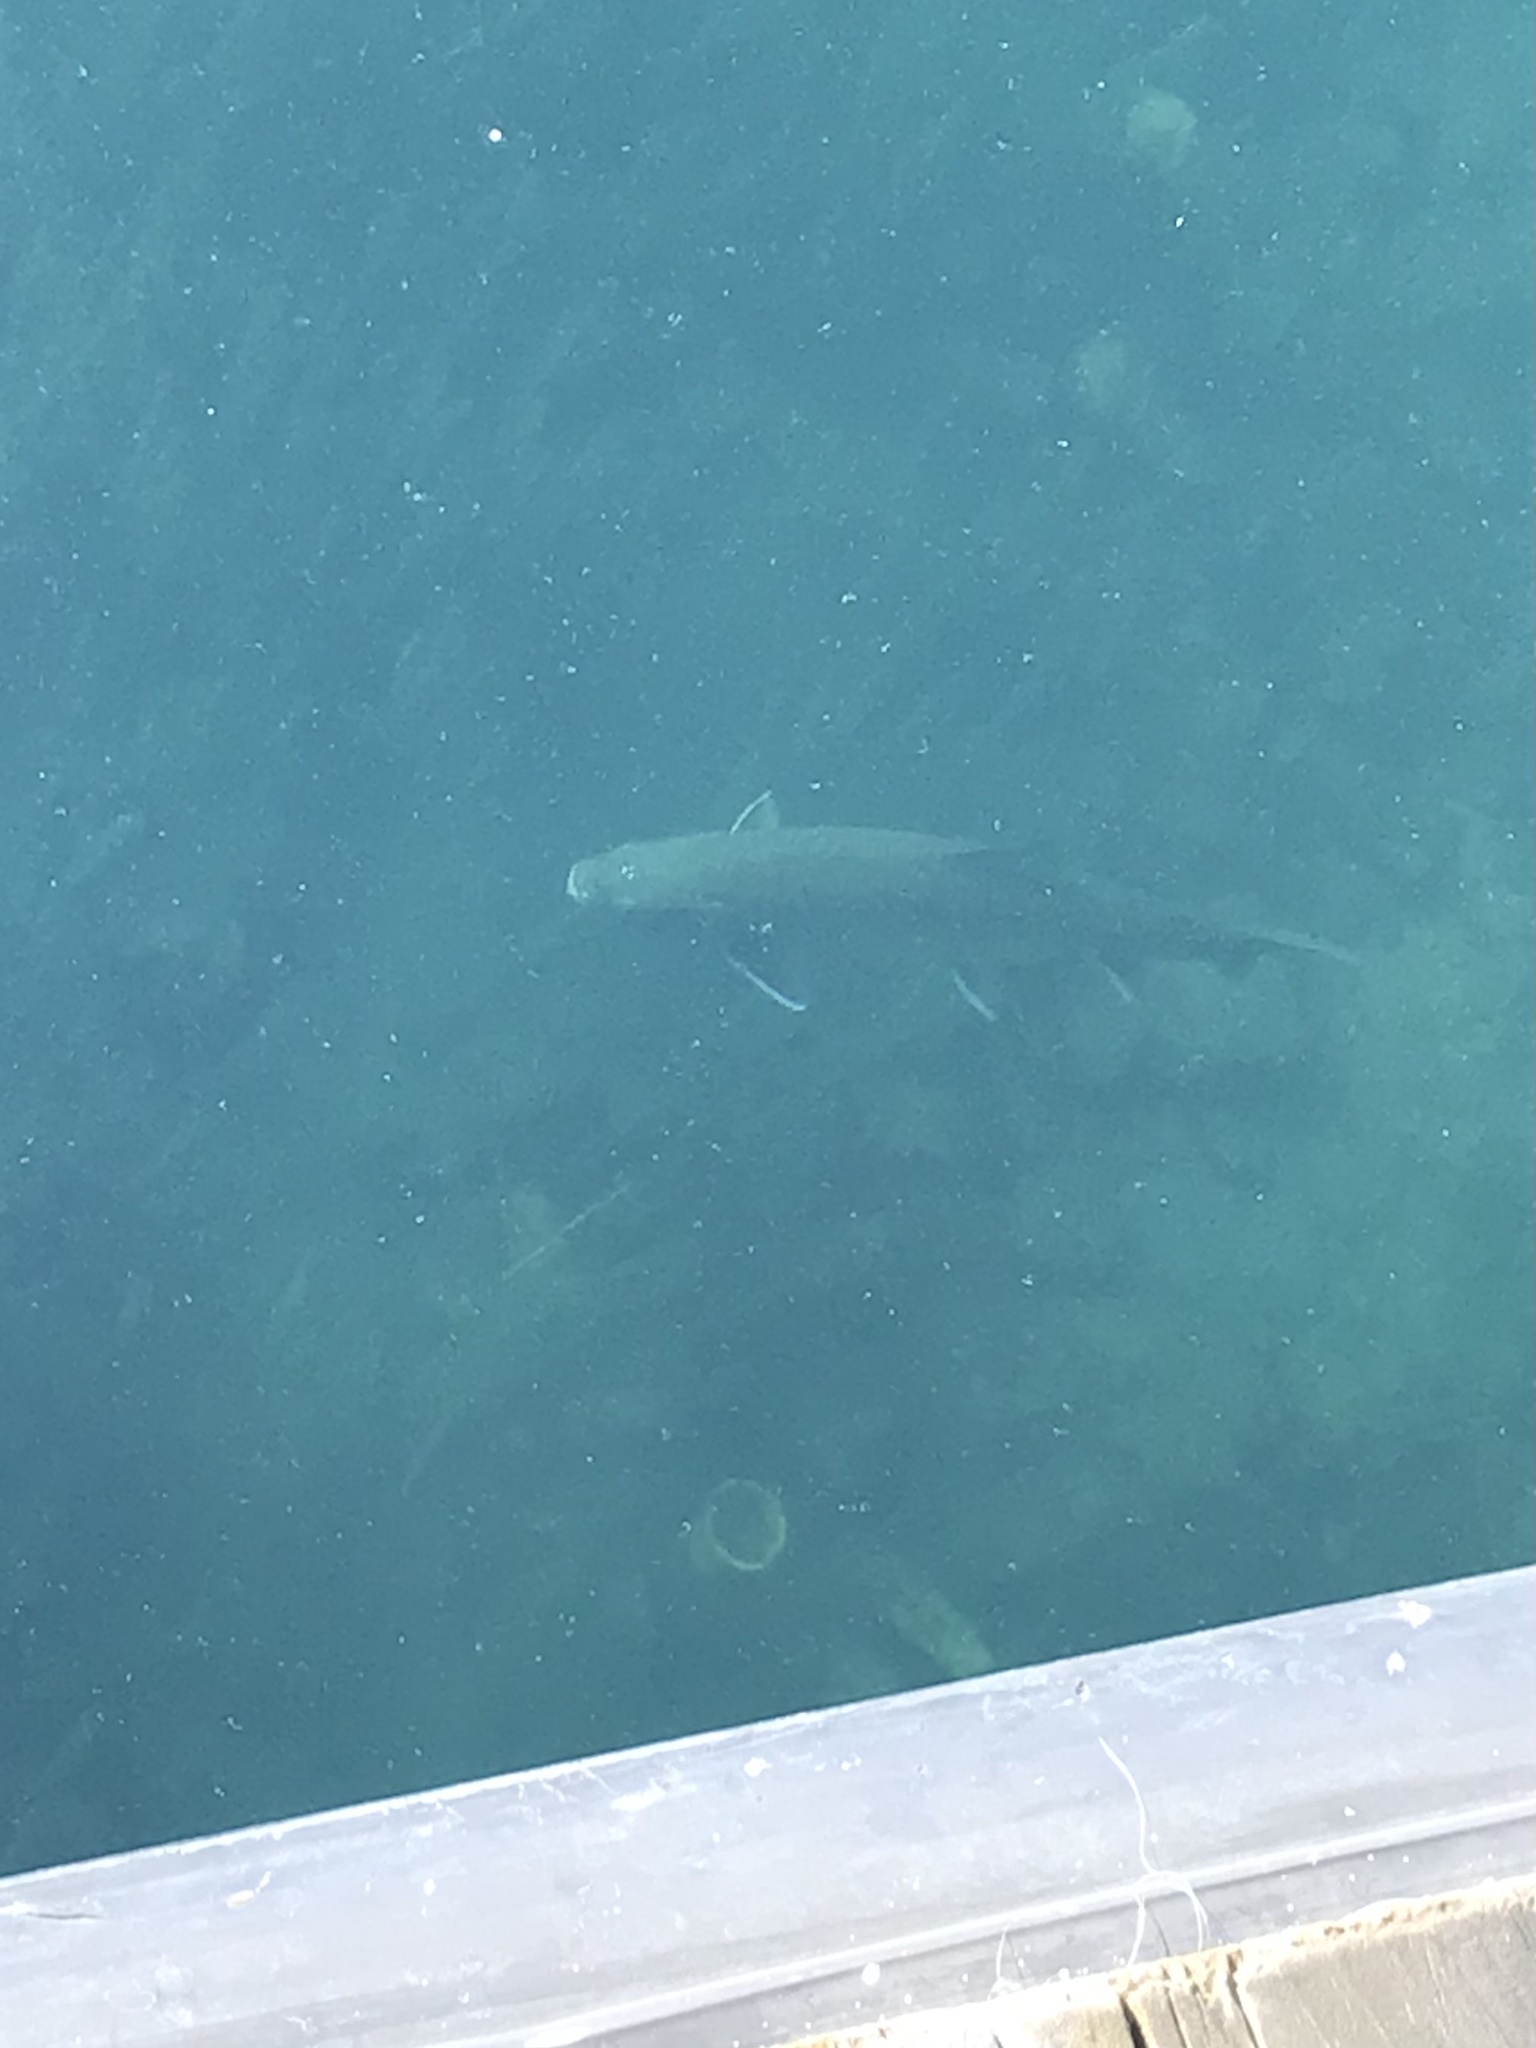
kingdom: Animalia
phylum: Chordata
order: Salmoniformes
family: Salmonidae
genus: Salvelinus
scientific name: Salvelinus namaycush
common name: American lake charr
